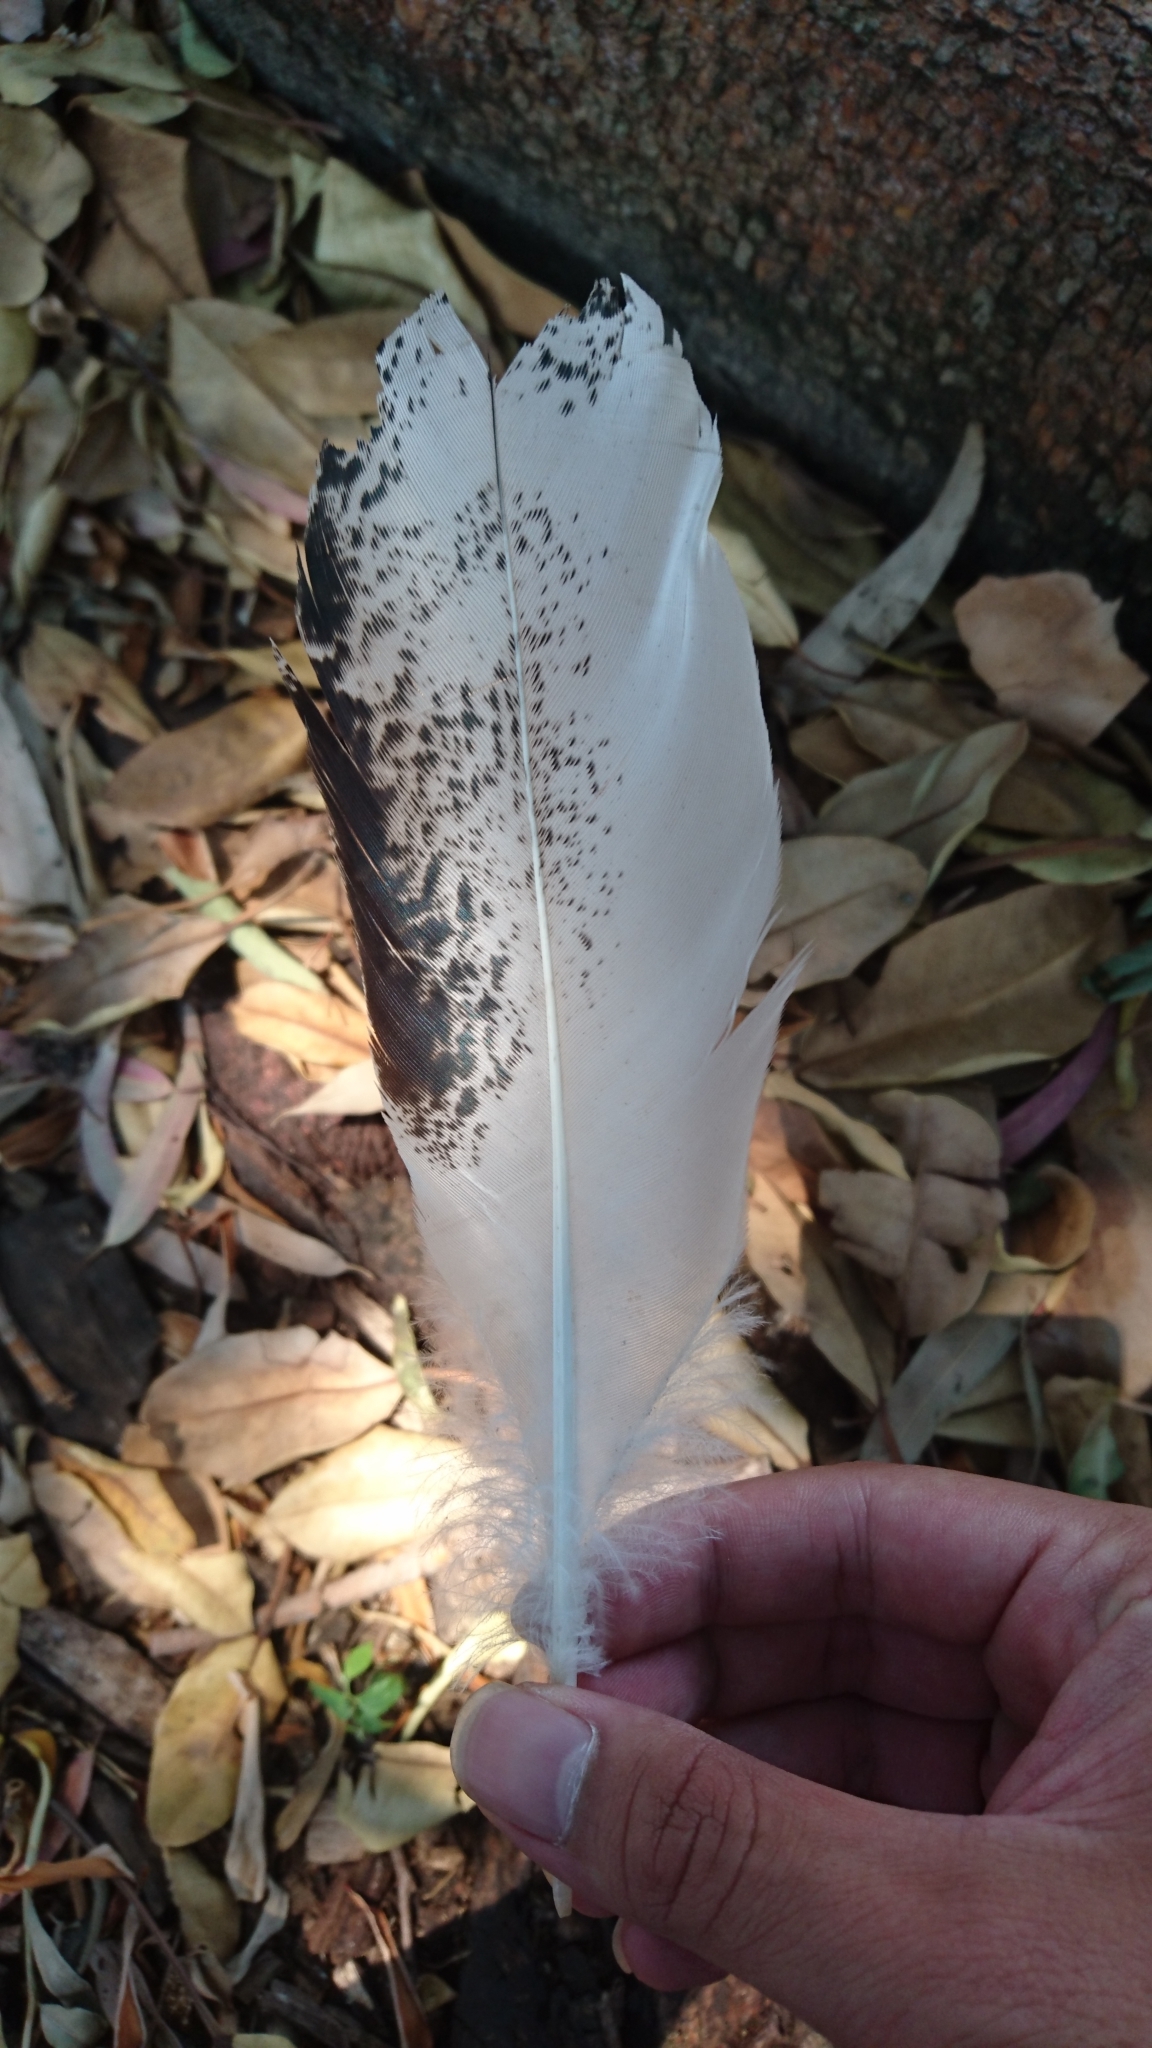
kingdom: Animalia
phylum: Chordata
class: Aves
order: Pelecaniformes
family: Threskiornithidae
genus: Threskiornis
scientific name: Threskiornis molucca
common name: Australian white ibis
